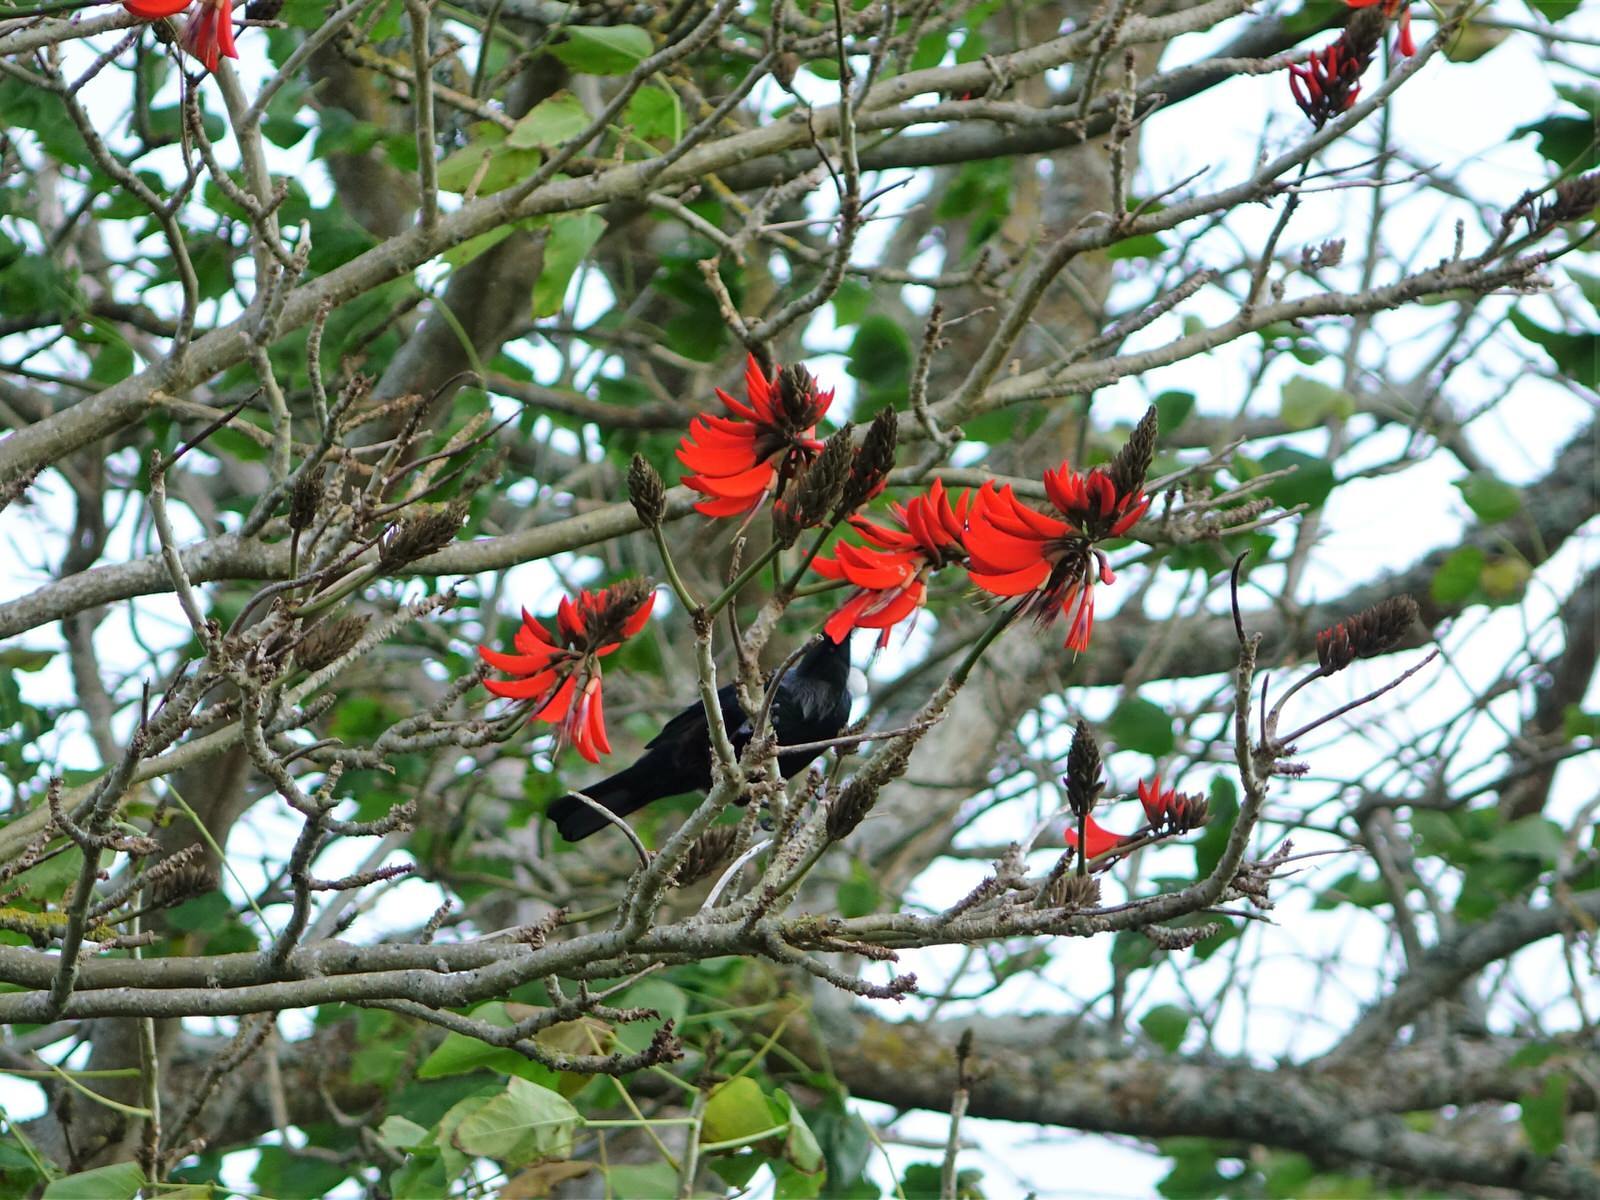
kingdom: Animalia
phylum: Chordata
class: Aves
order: Passeriformes
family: Meliphagidae
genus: Prosthemadera
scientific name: Prosthemadera novaeseelandiae
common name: Tui
